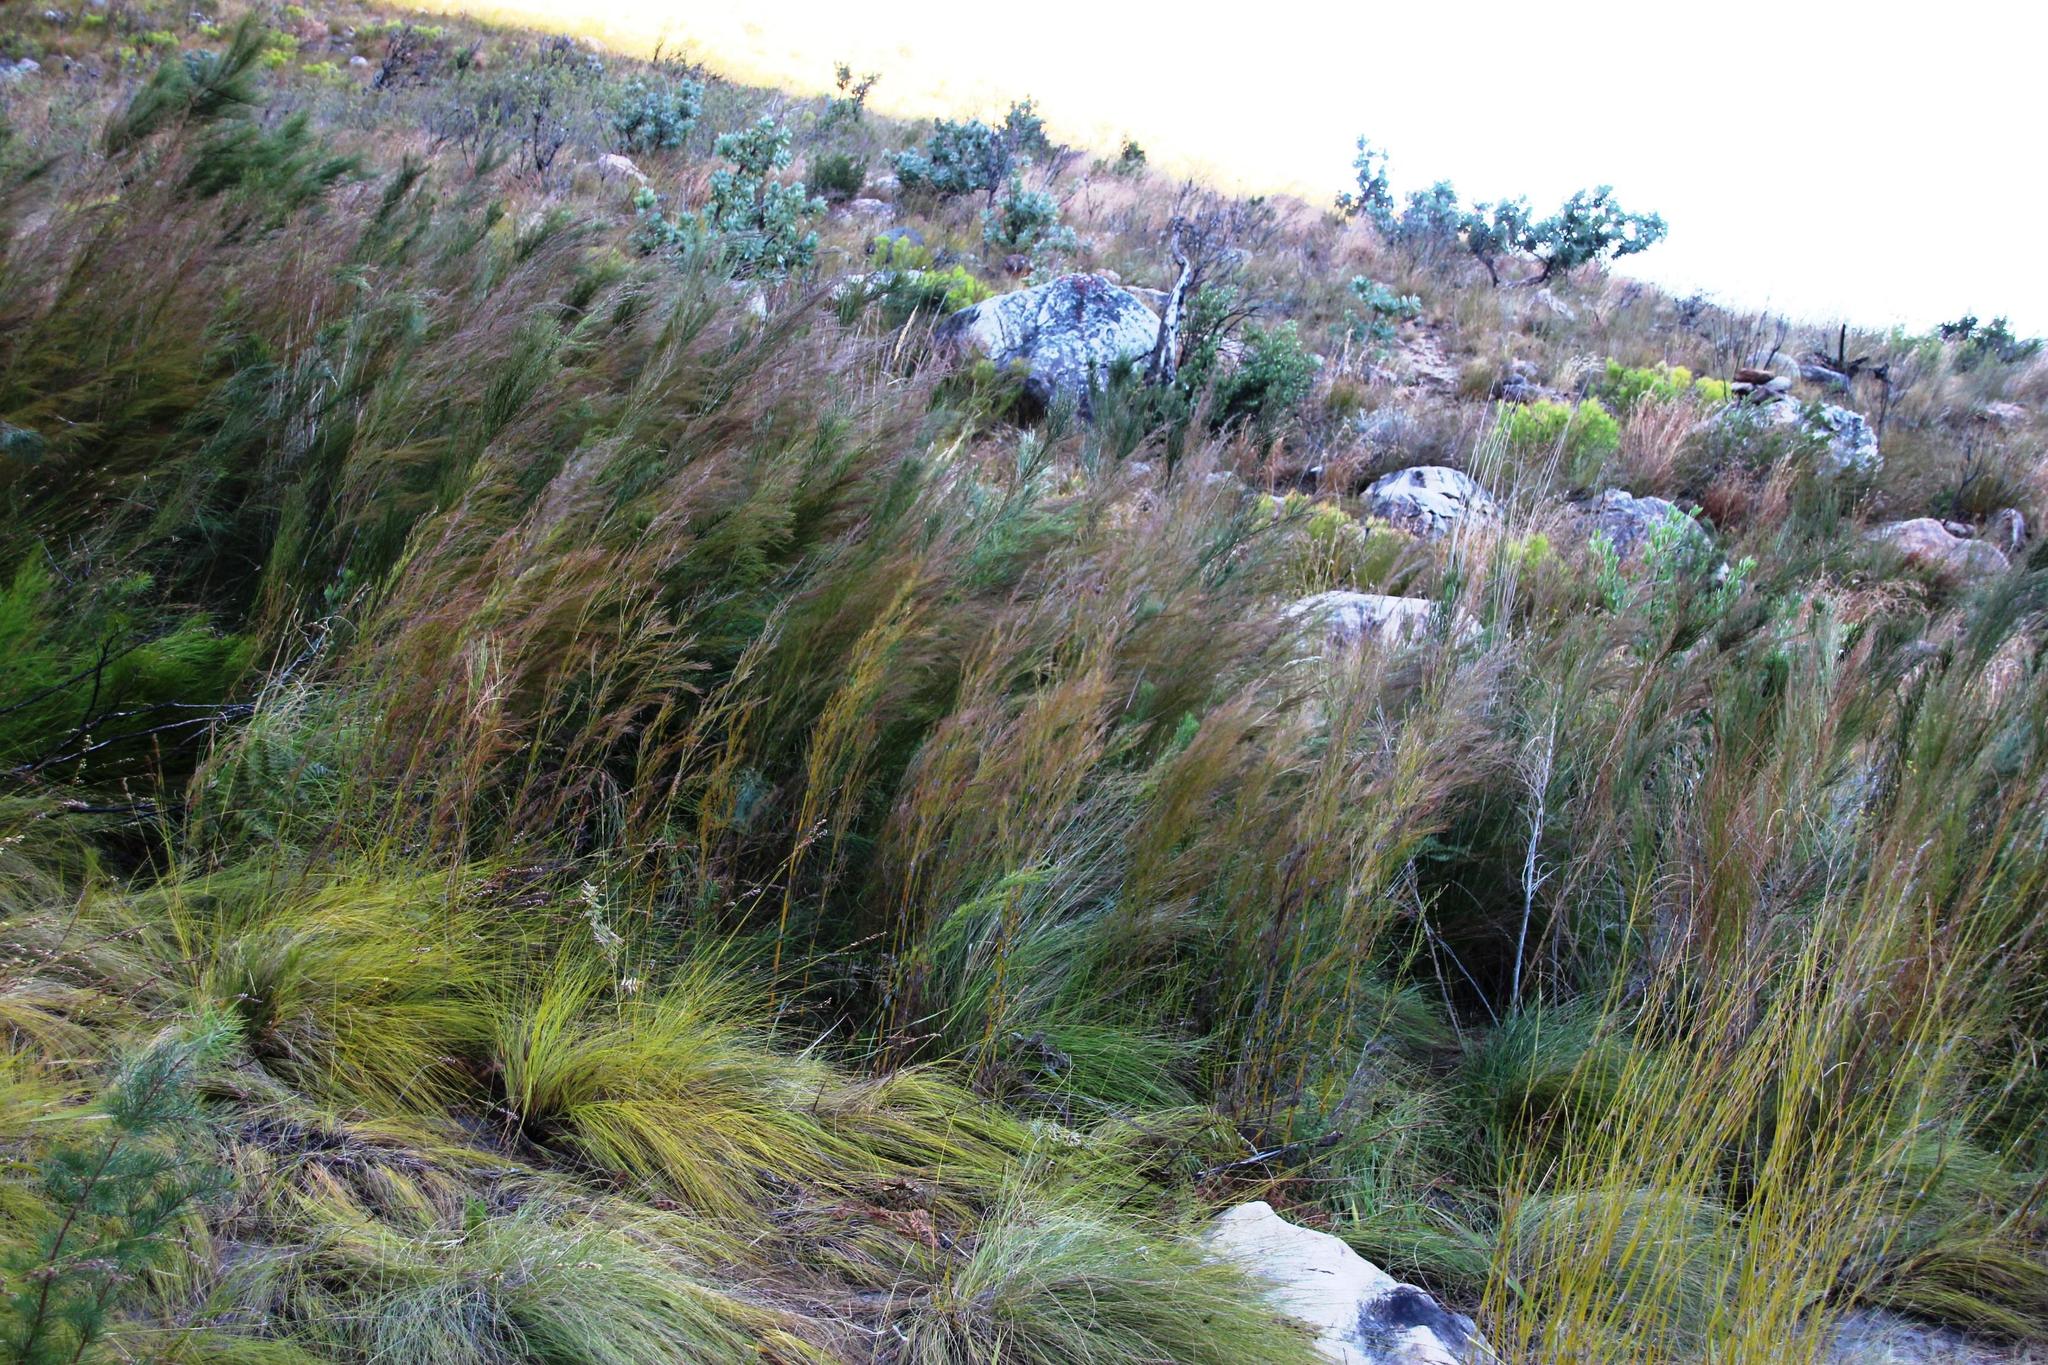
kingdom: Plantae
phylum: Tracheophyta
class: Magnoliopsida
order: Fabales
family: Fabaceae
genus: Psoralea
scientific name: Psoralea usitata
